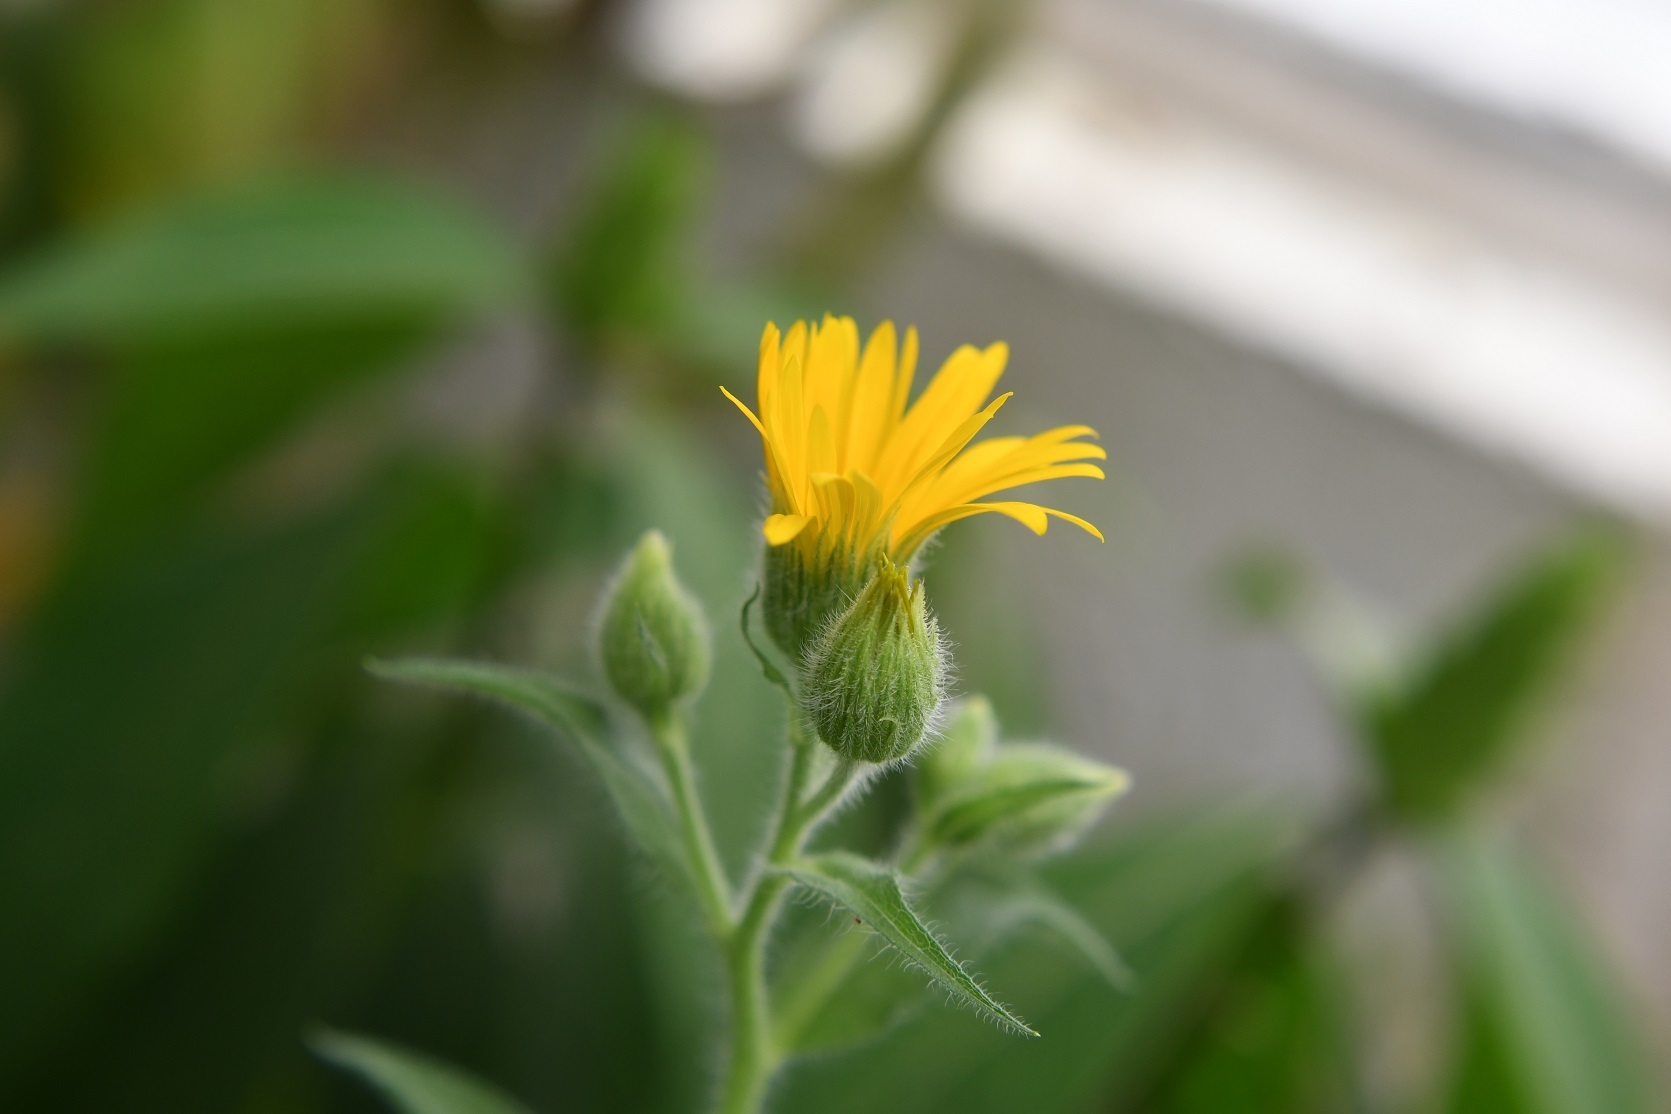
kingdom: Plantae
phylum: Tracheophyta
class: Magnoliopsida
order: Asterales
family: Asteraceae
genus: Heterotheca
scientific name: Heterotheca inuloides
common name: False arnica
